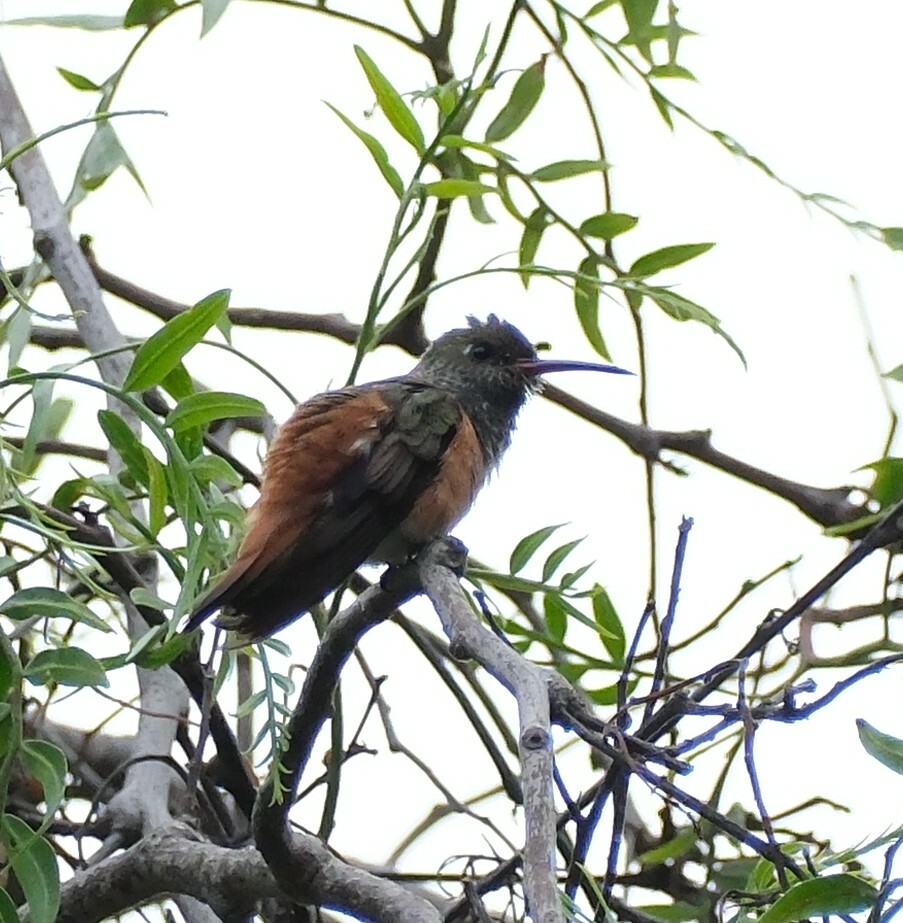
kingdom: Animalia
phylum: Chordata
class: Aves
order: Apodiformes
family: Trochilidae
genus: Amazilis
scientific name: Amazilis amazilia
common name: Amazilia hummingbird
